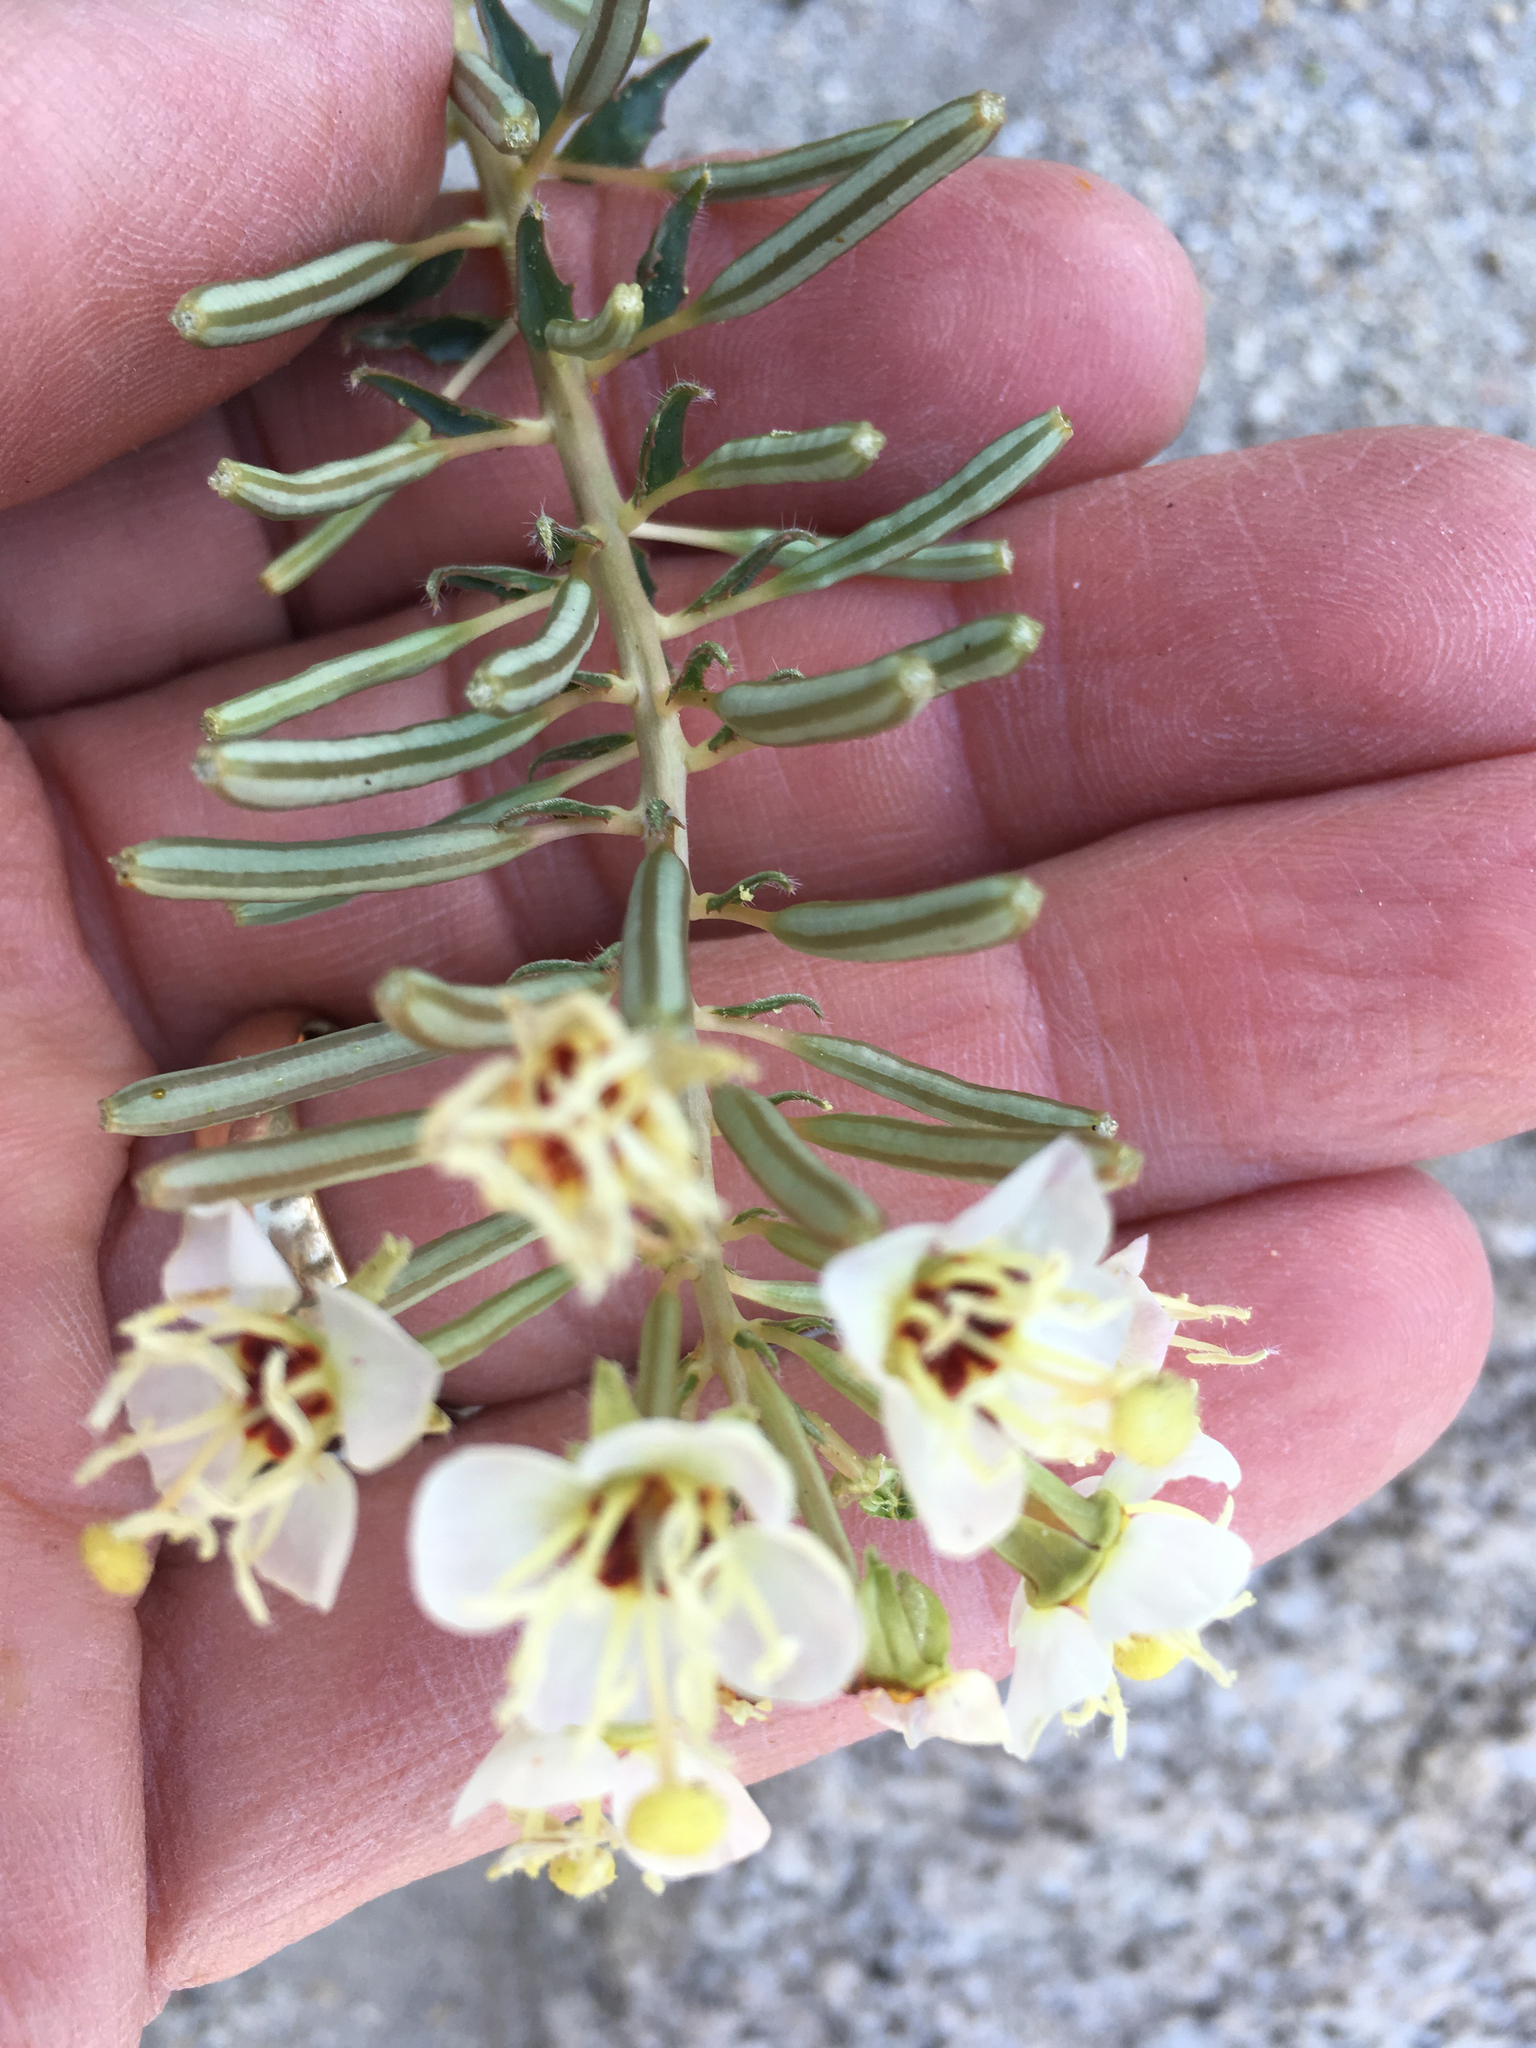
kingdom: Plantae
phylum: Tracheophyta
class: Magnoliopsida
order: Myrtales
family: Onagraceae
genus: Chylismia
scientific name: Chylismia claviformis
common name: Browneyes
